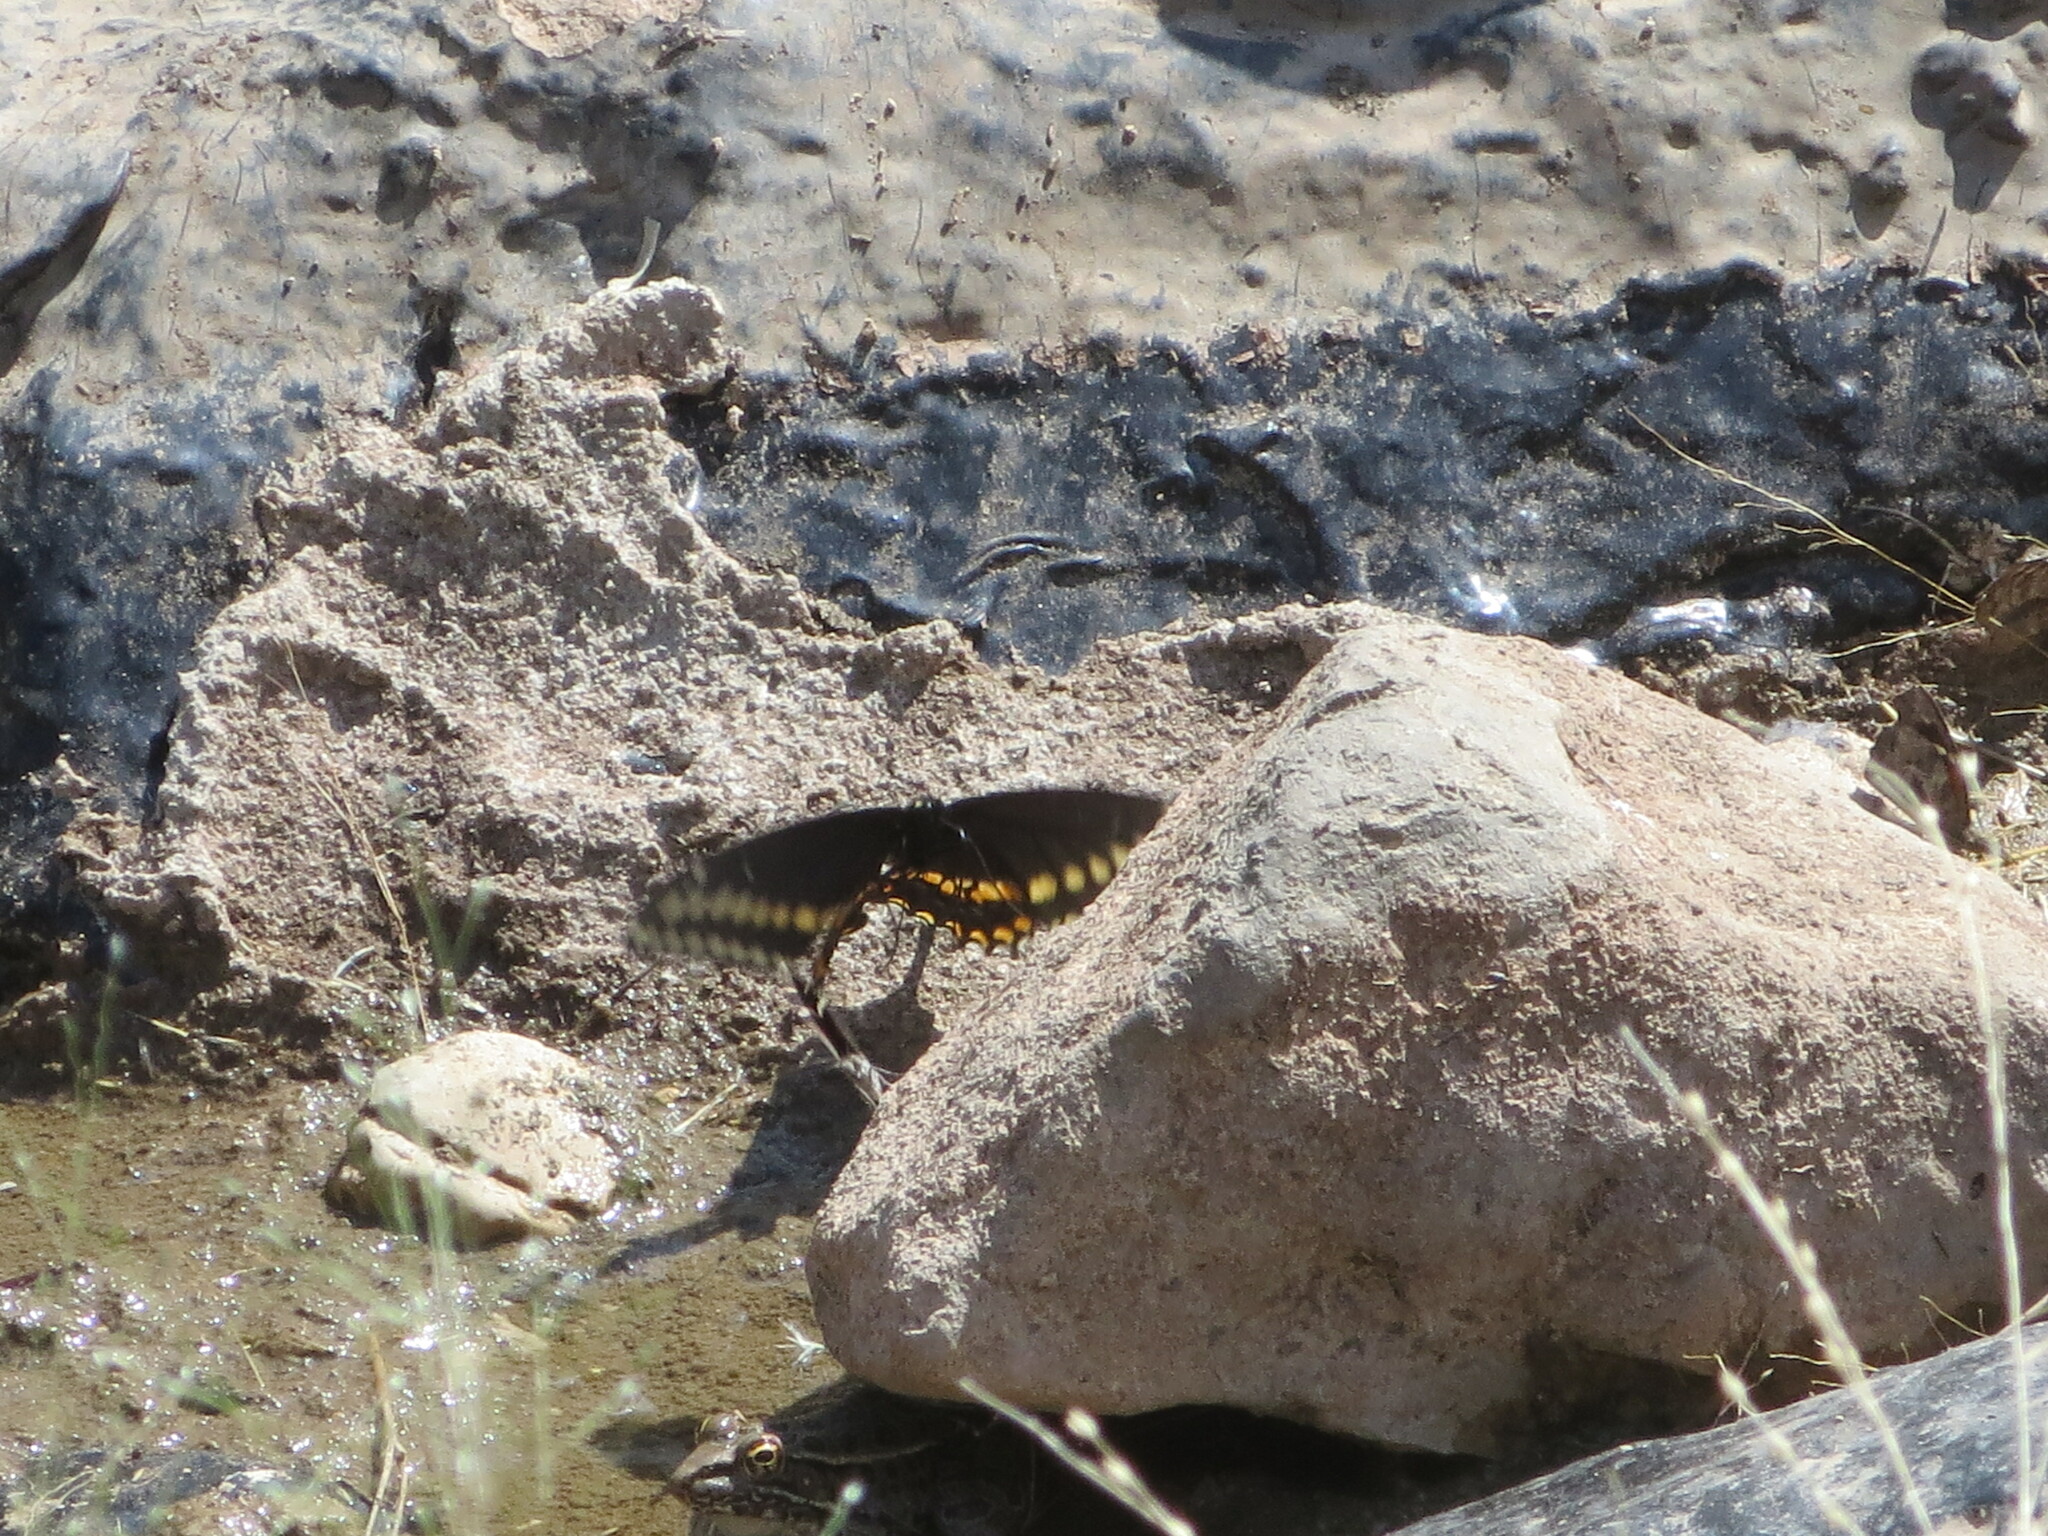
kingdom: Animalia
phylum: Arthropoda
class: Insecta
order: Lepidoptera
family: Papilionidae
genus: Papilio
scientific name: Papilio polyxenes
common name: Black swallowtail
